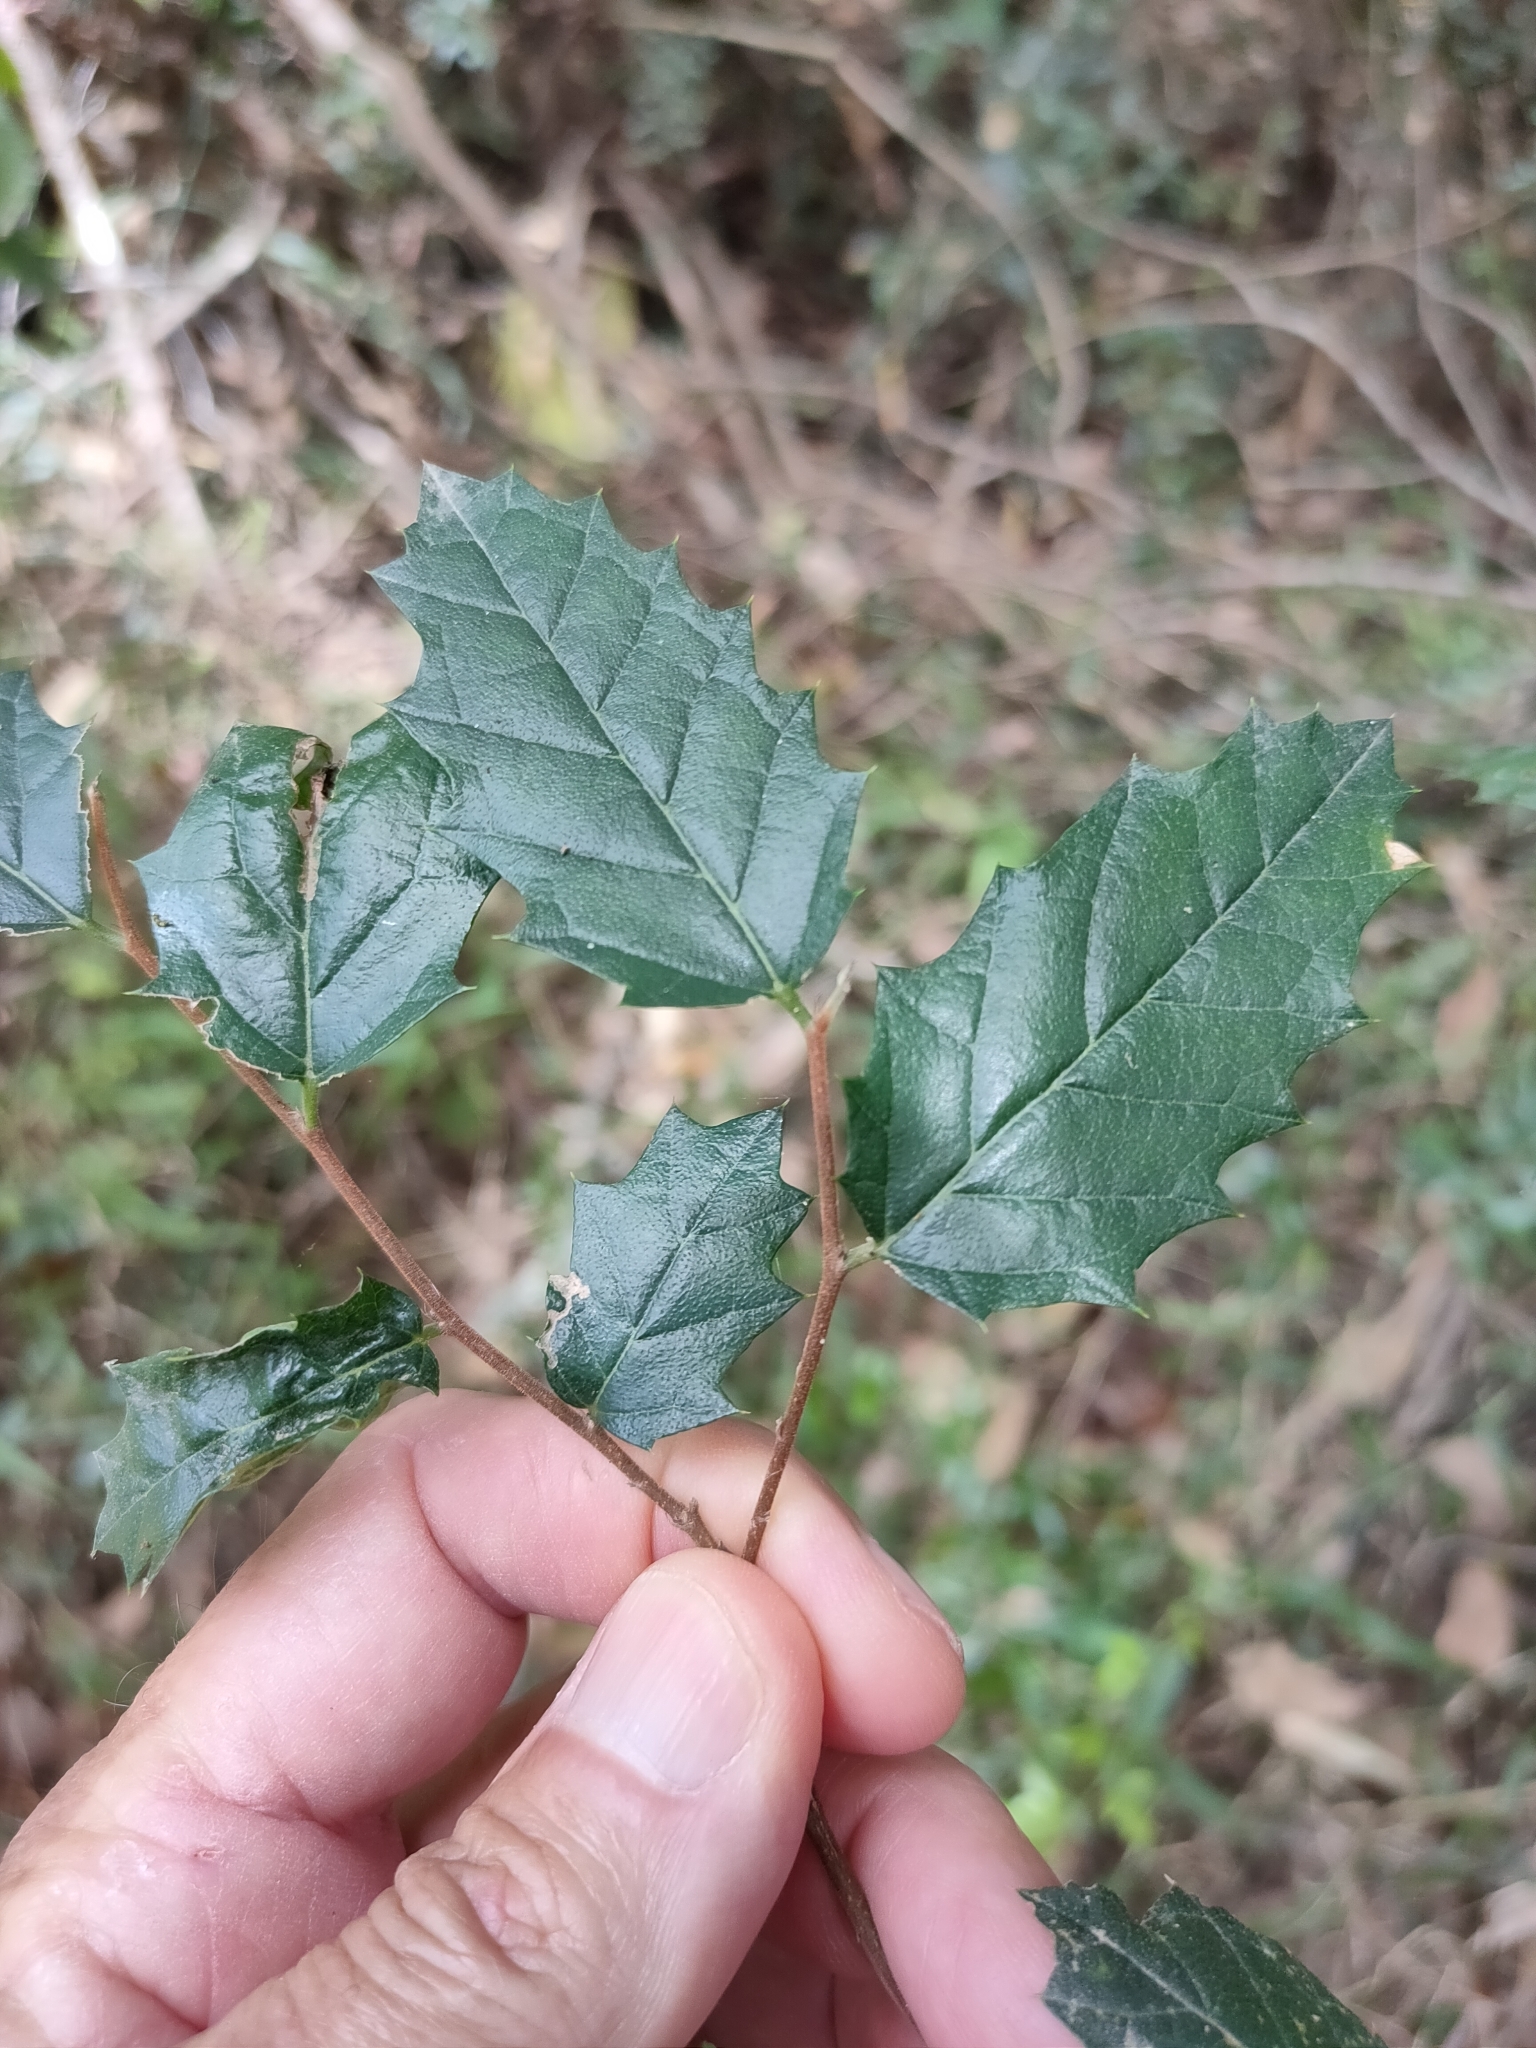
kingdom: Plantae
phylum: Tracheophyta
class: Magnoliopsida
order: Rosales
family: Cannabaceae
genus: Aphananthe
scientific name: Aphananthe philippinensis
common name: Wild holly
